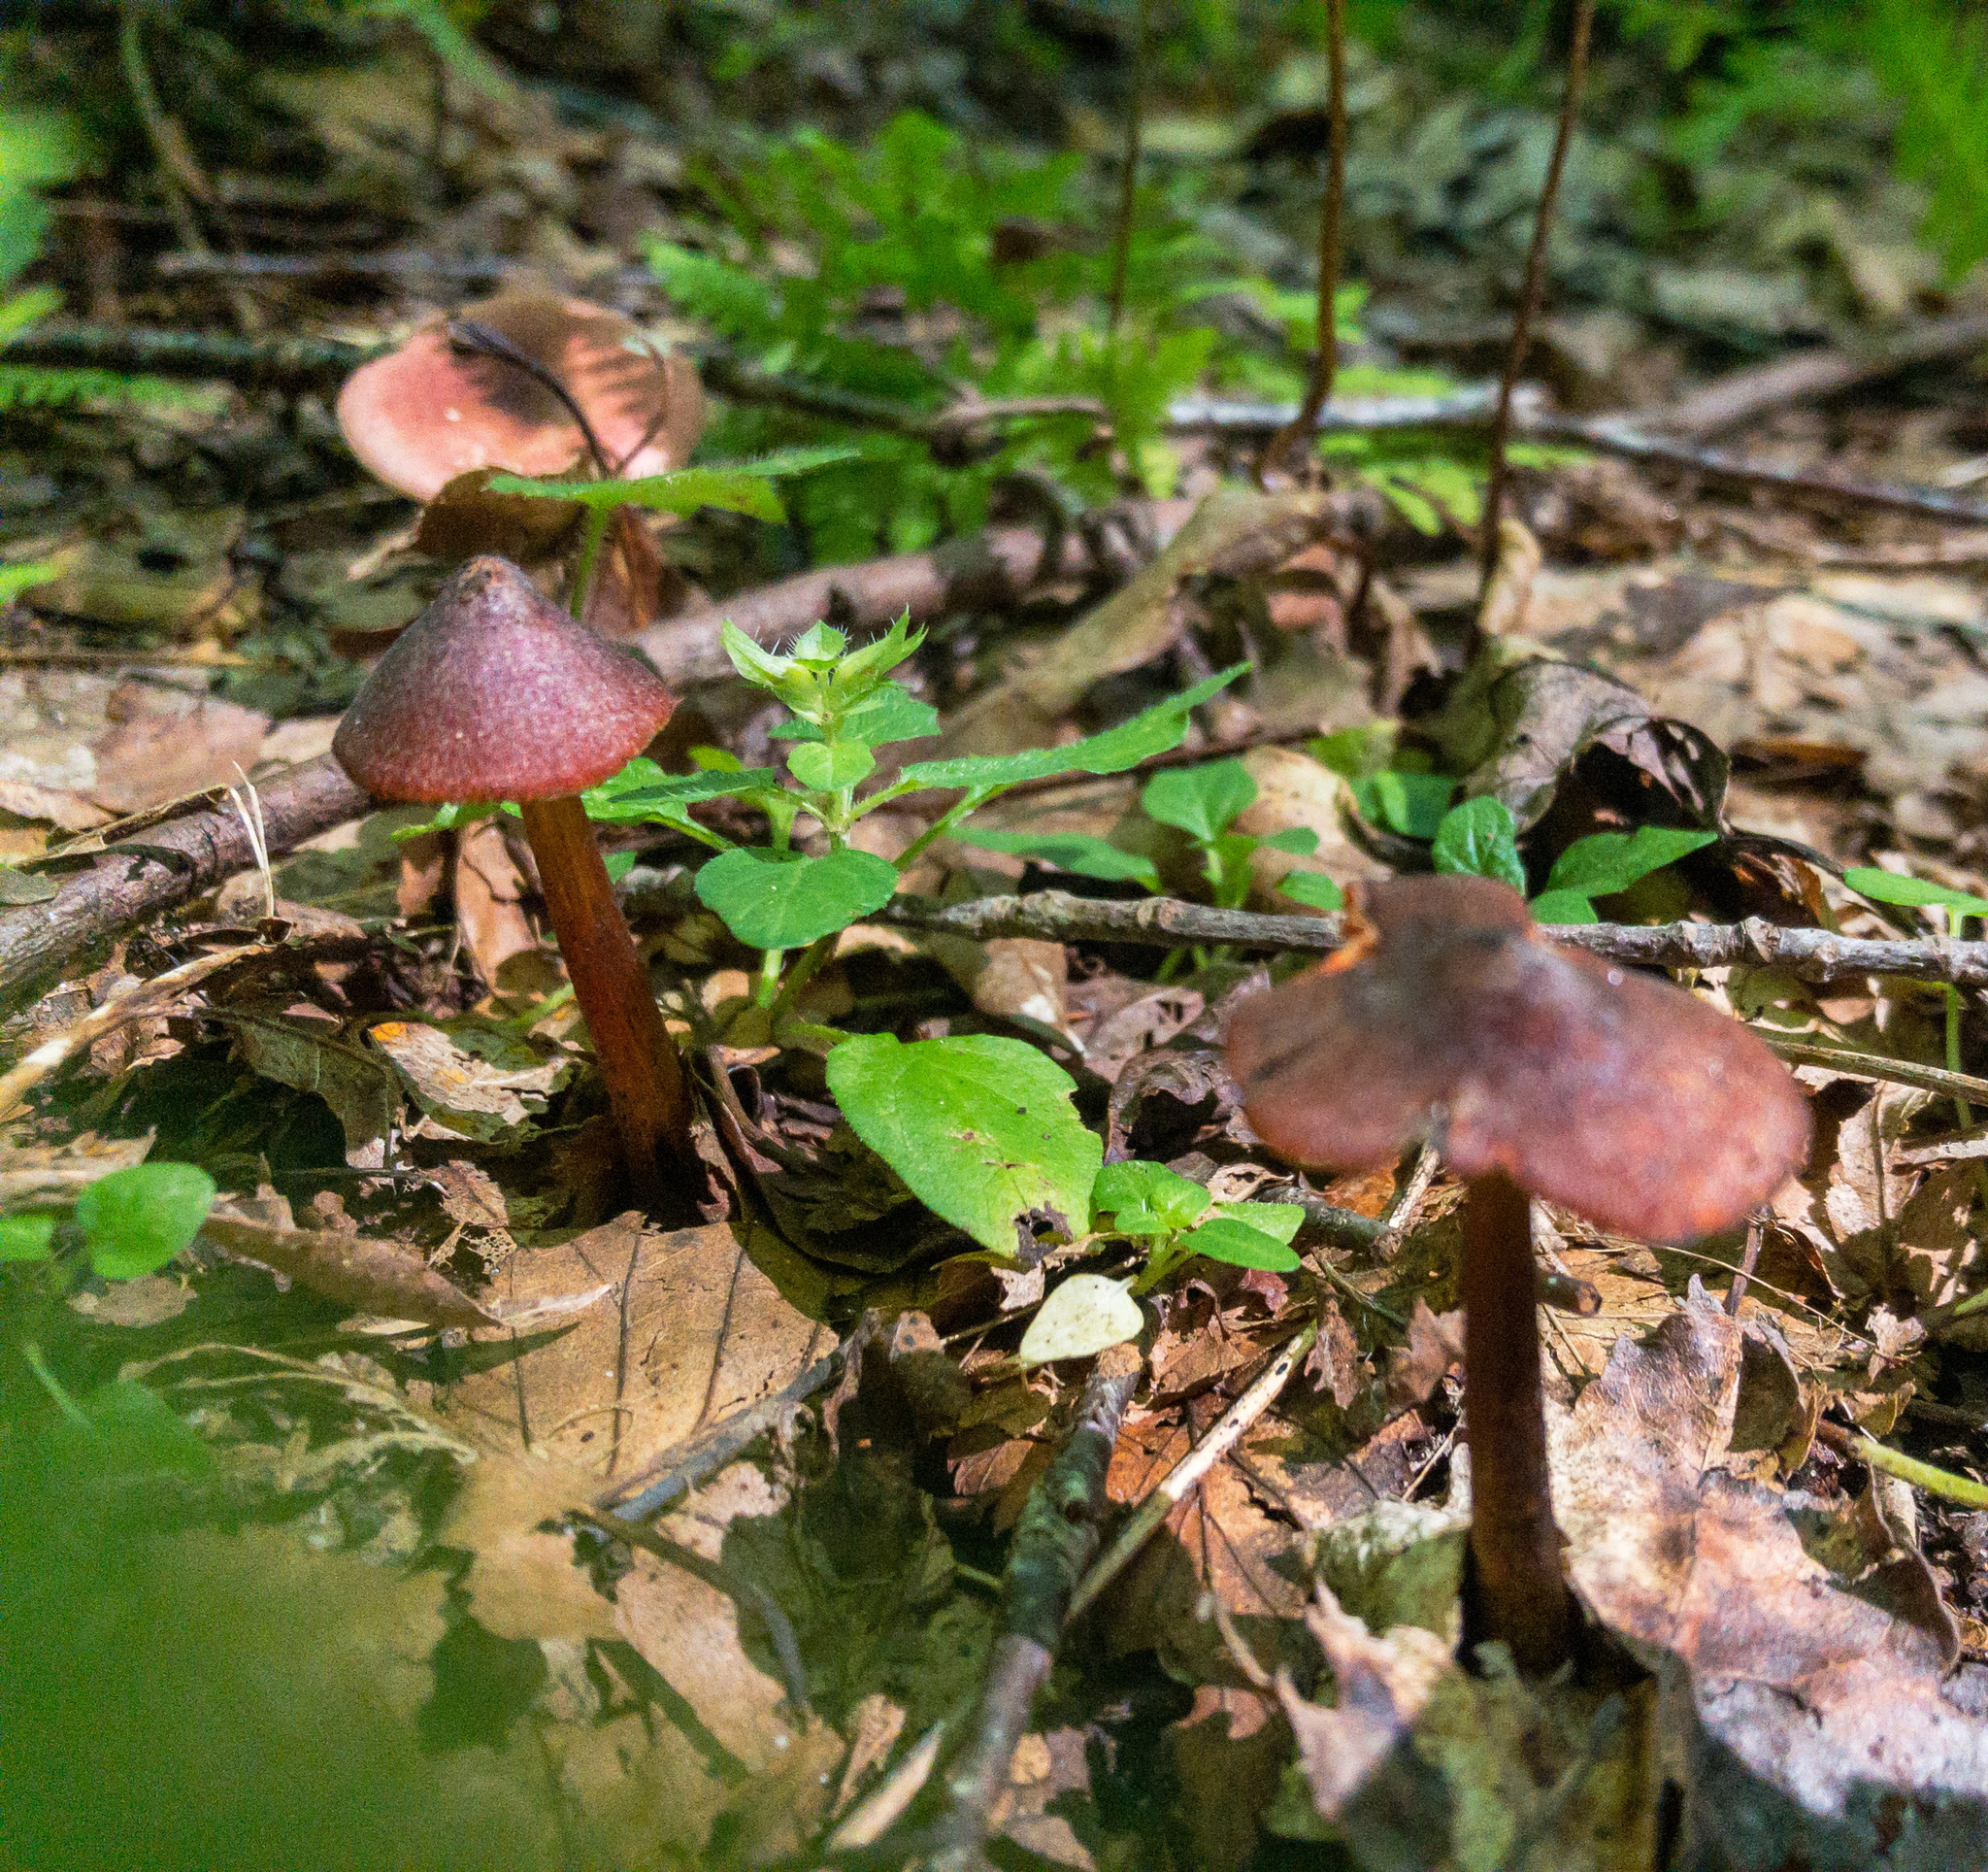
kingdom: Fungi
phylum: Basidiomycota
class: Agaricomycetes
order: Agaricales
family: Hygrophoraceae
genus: Hygrocybe
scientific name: Hygrocybe conica
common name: Blackening wax-cap
